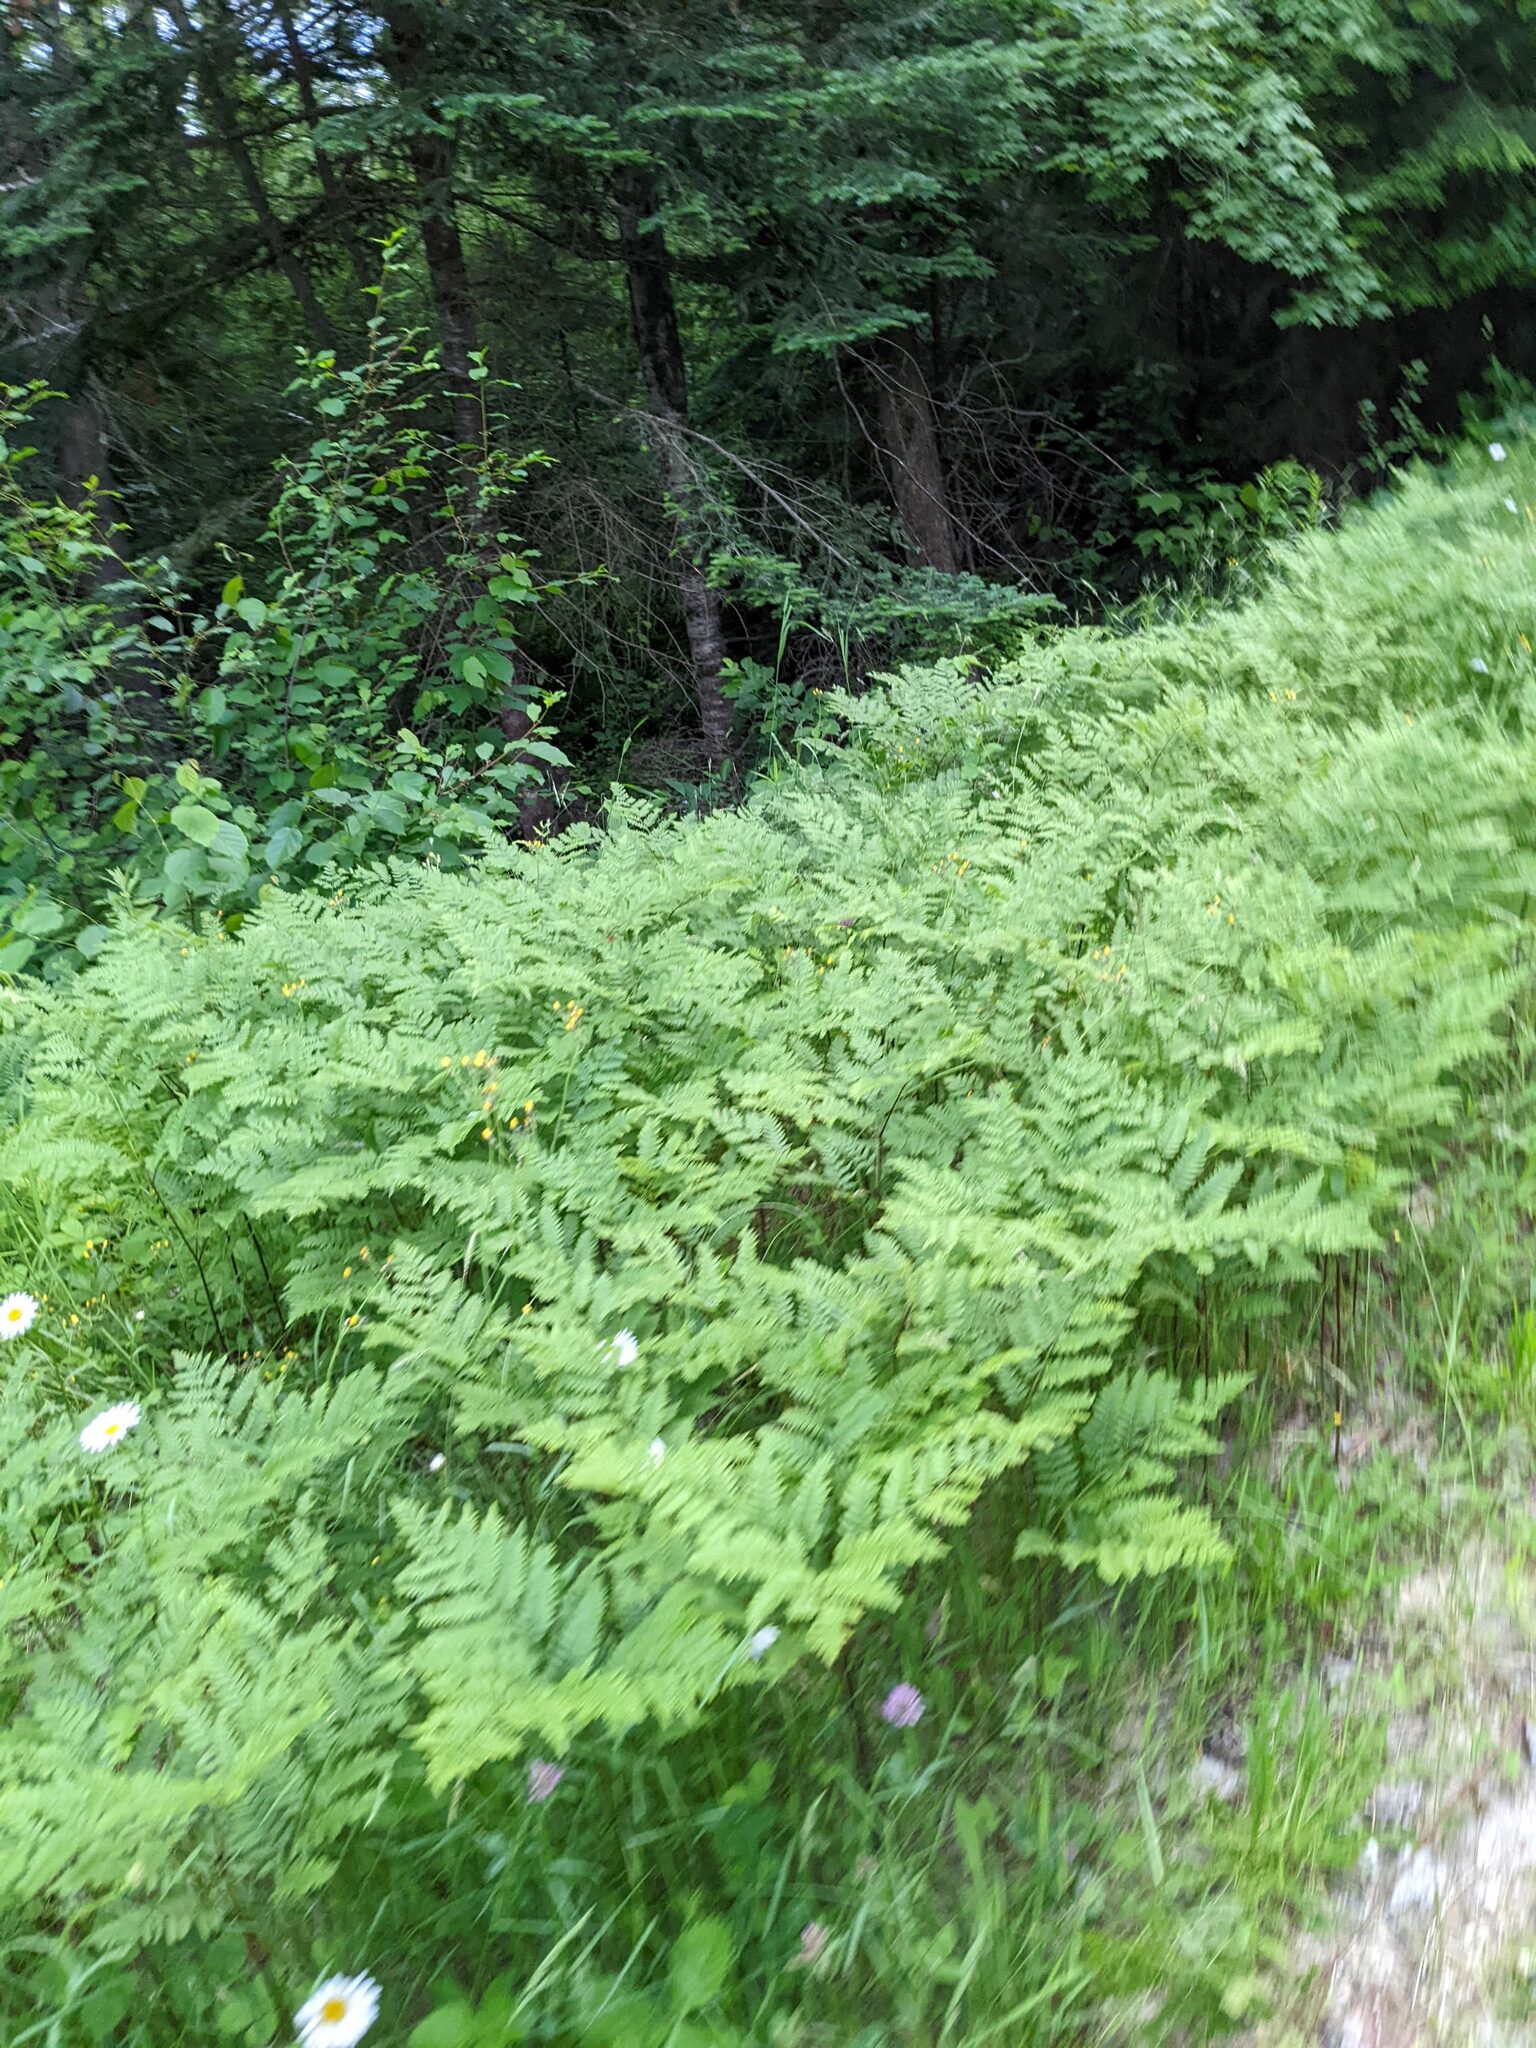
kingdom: Plantae
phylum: Tracheophyta
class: Polypodiopsida
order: Polypodiales
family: Dennstaedtiaceae
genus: Pteridium
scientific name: Pteridium aquilinum
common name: Bracken
